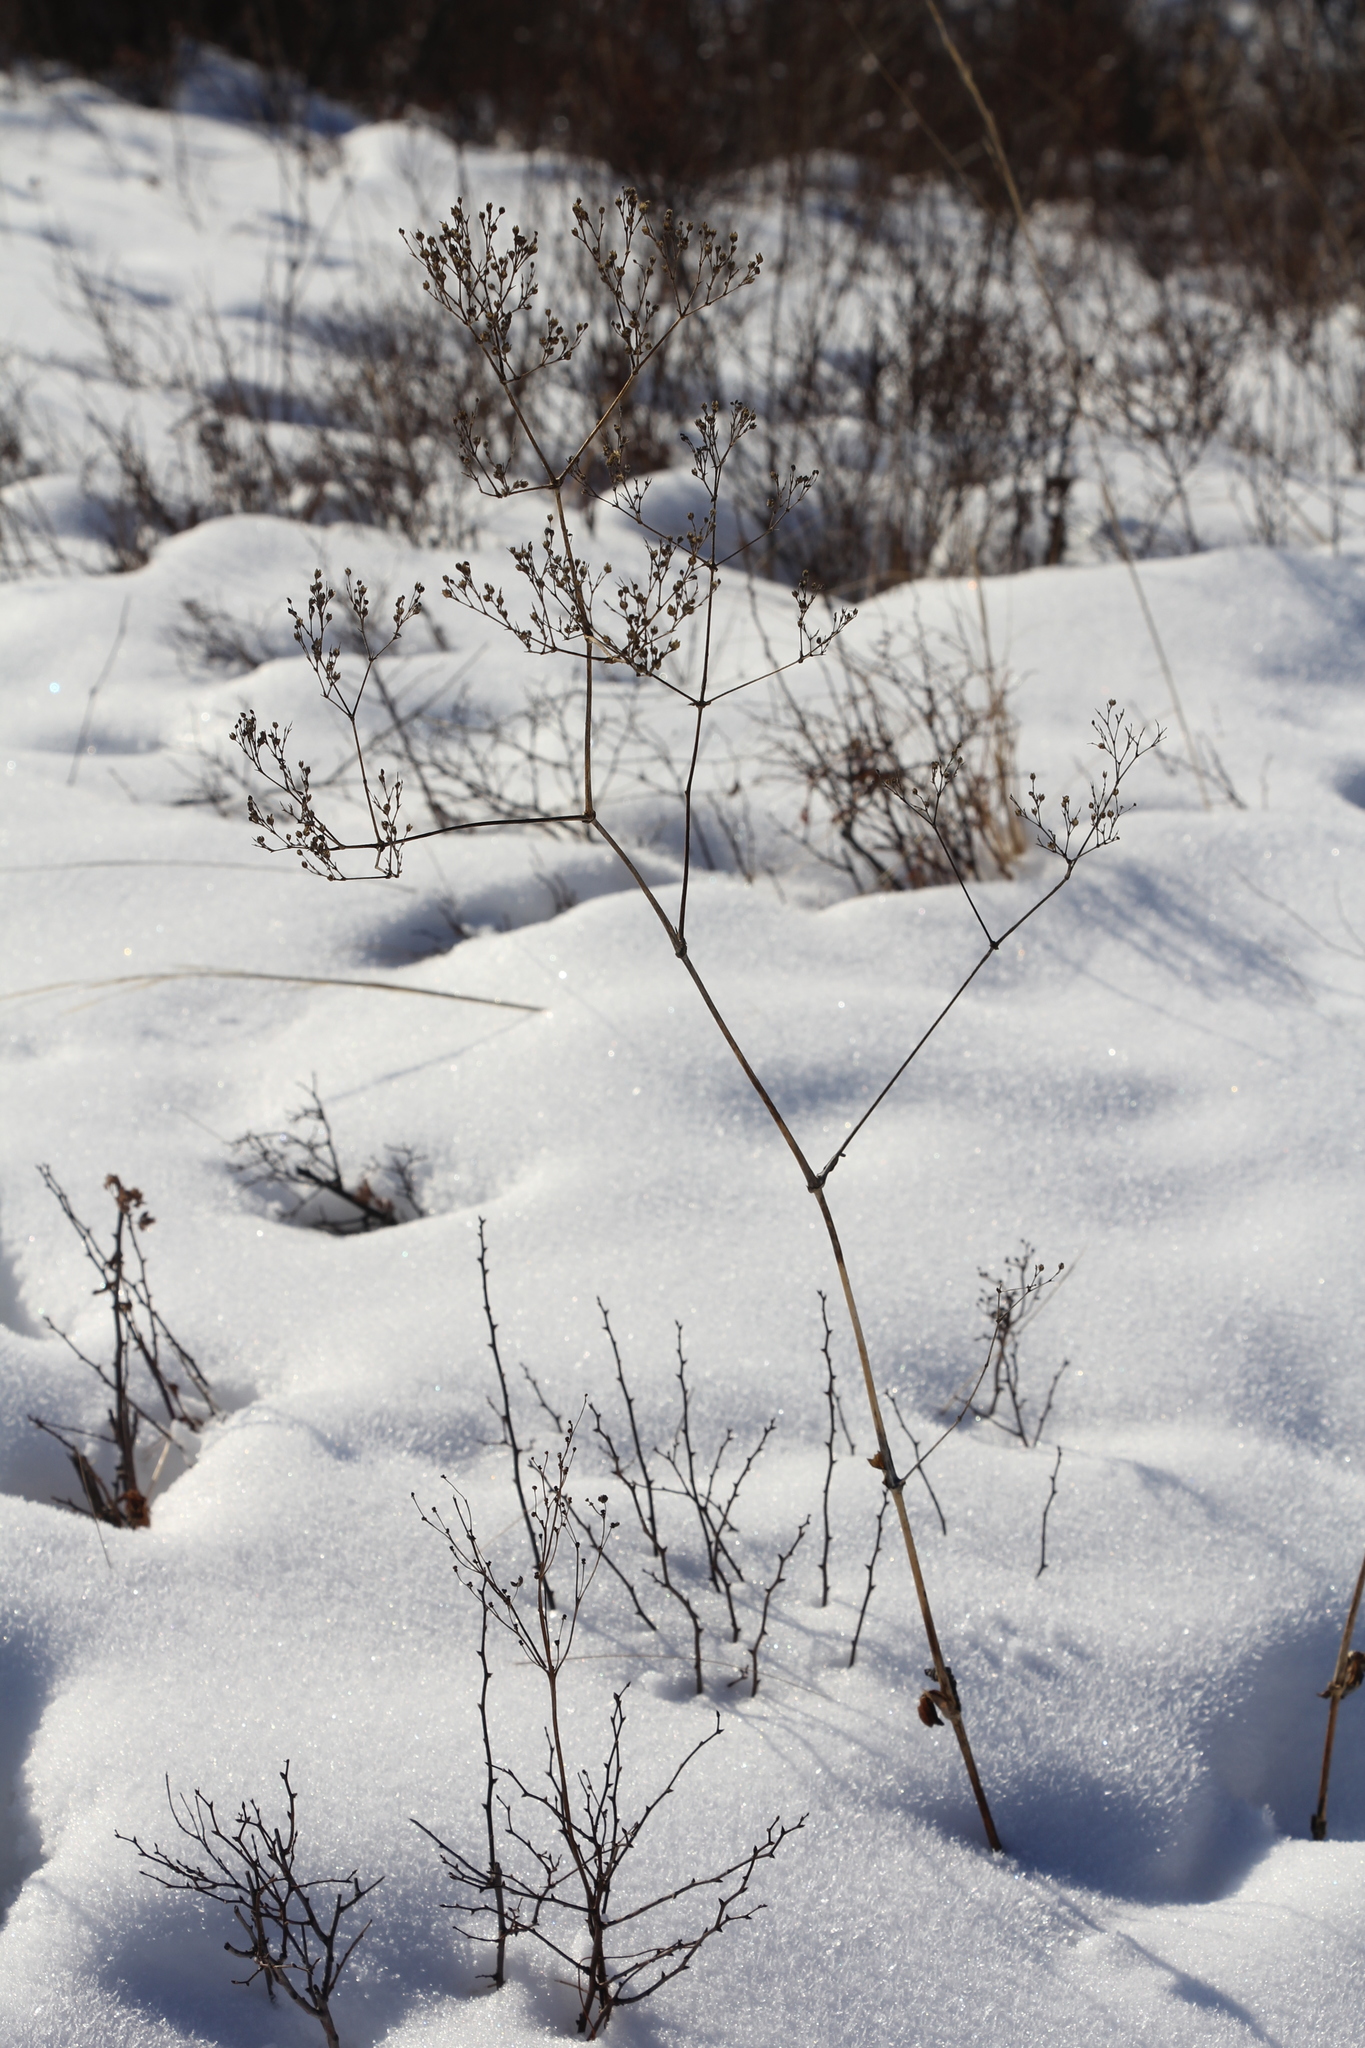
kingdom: Plantae
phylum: Tracheophyta
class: Magnoliopsida
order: Caryophyllales
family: Caryophyllaceae
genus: Gypsophila
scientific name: Gypsophila altissima
